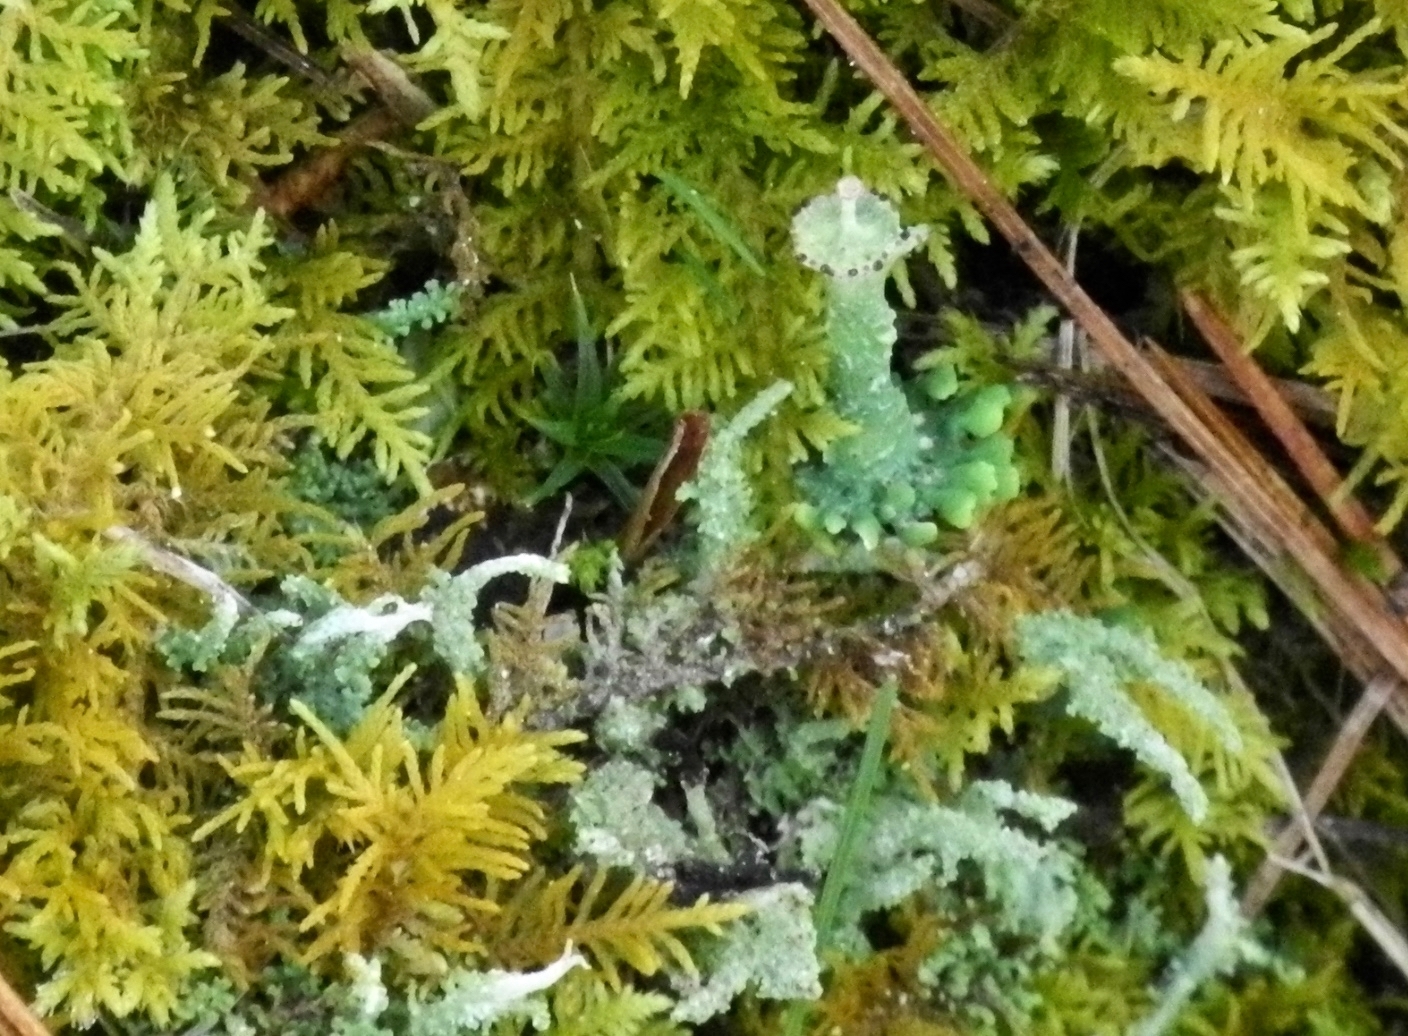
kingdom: Fungi
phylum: Ascomycota
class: Lecanoromycetes
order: Lecanorales
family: Cladoniaceae
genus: Cladonia
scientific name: Cladonia gracilis
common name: Smooth clad lichen
